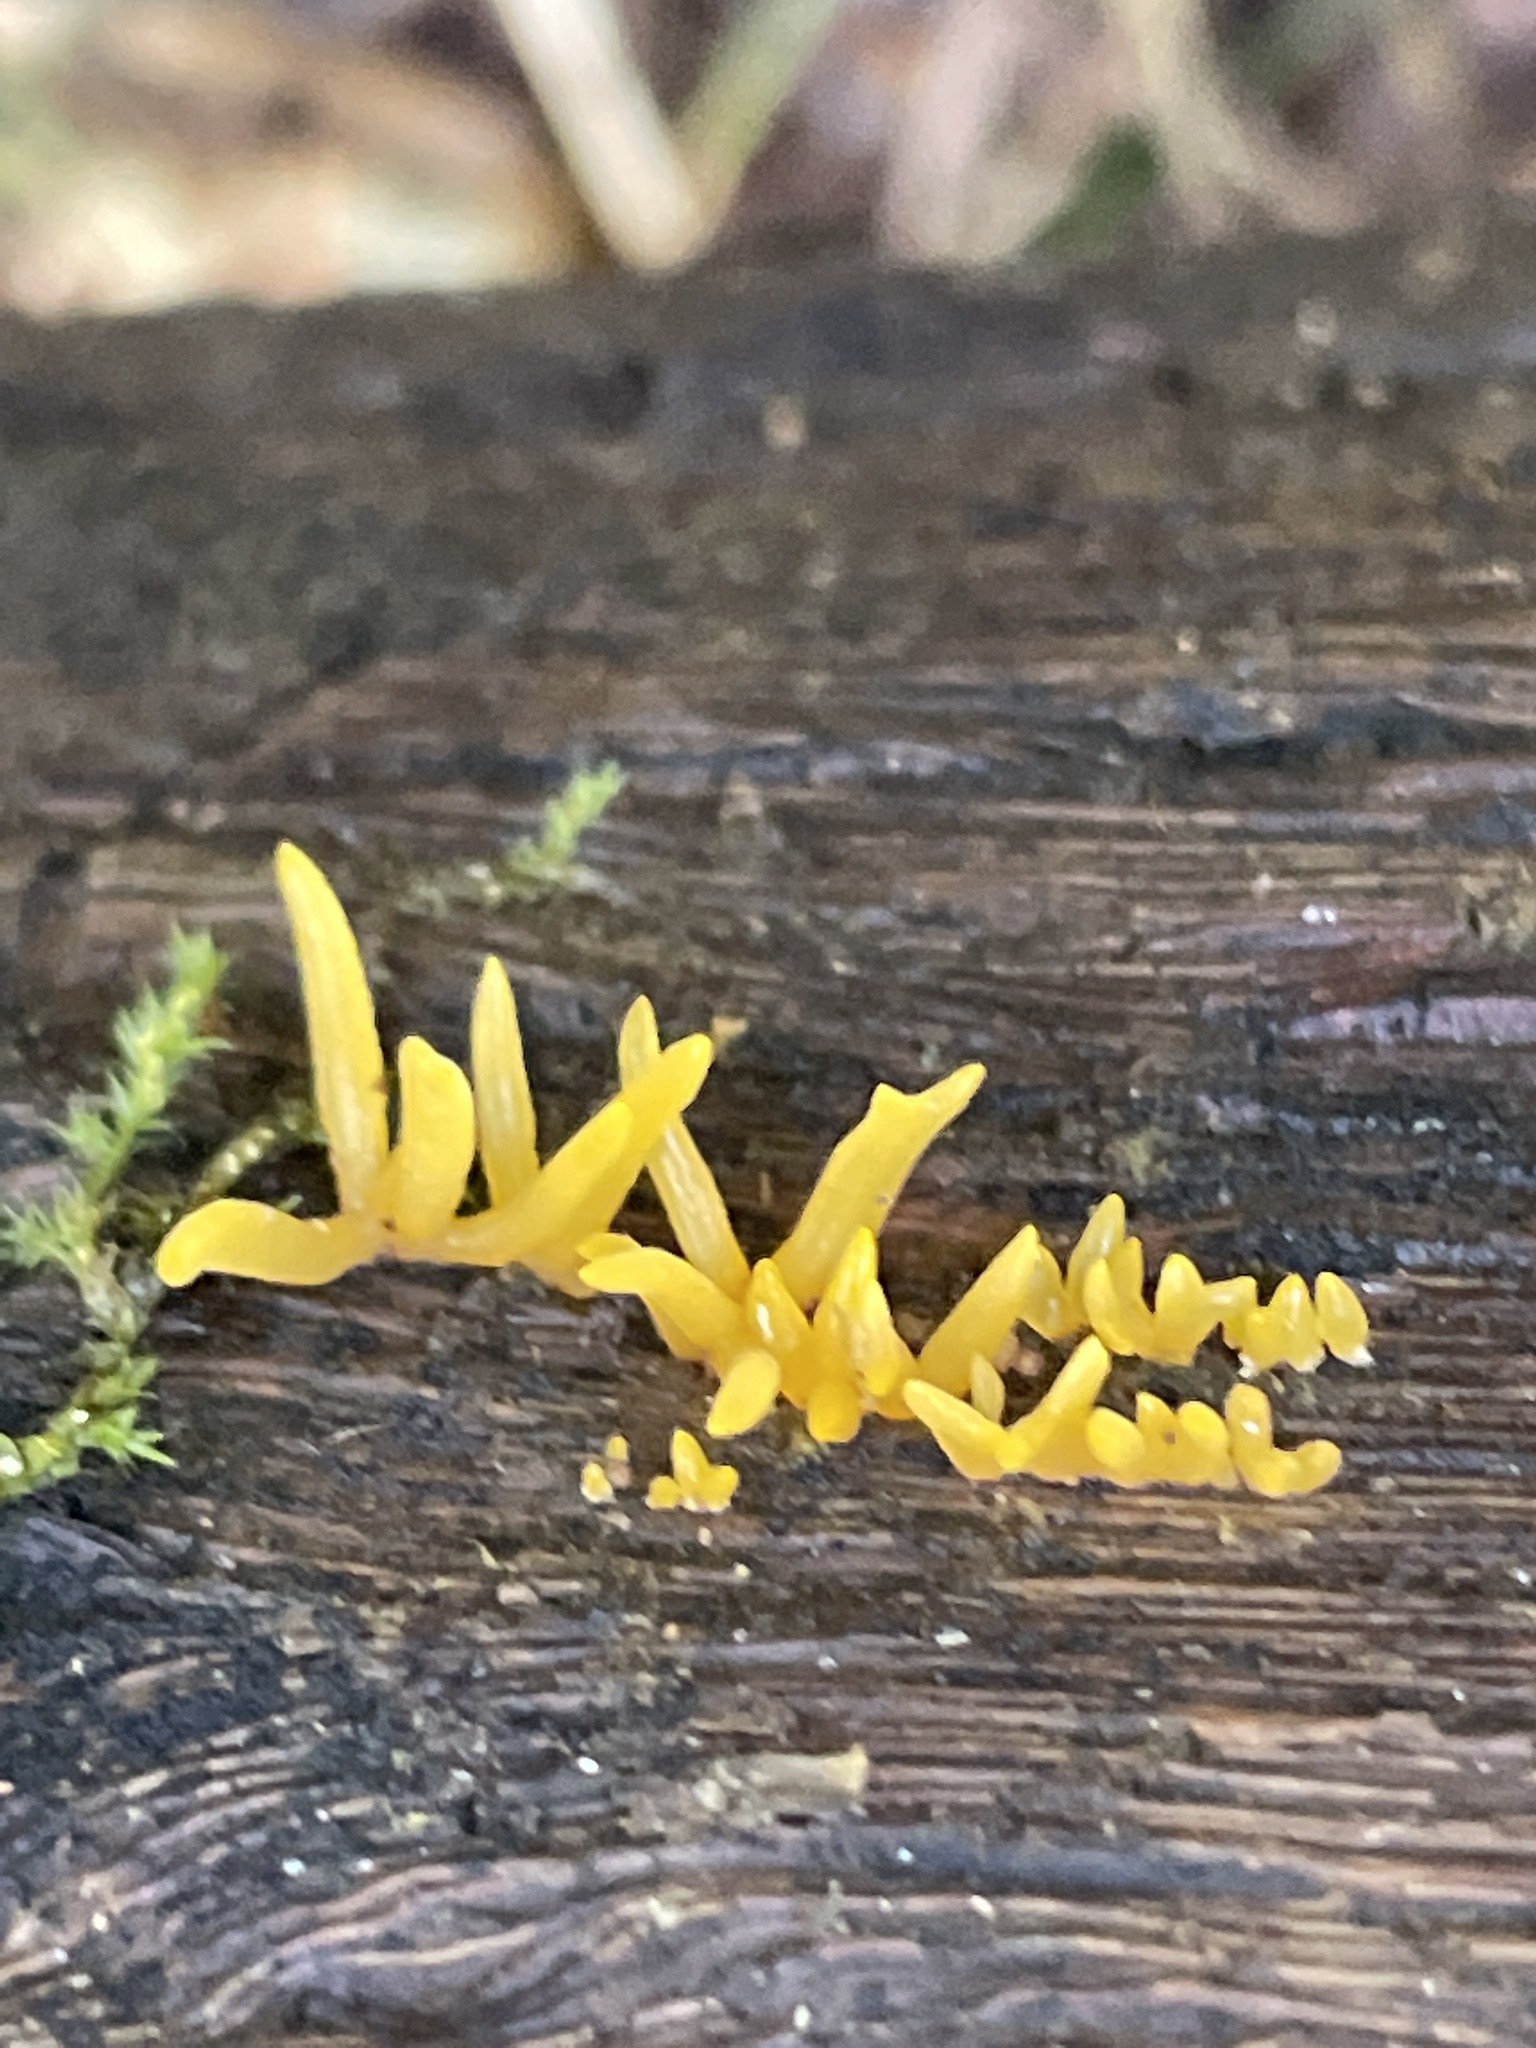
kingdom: Fungi
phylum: Basidiomycota
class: Dacrymycetes
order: Dacrymycetales
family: Dacrymycetaceae
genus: Calocera
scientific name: Calocera cornea
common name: Small stagshorn
